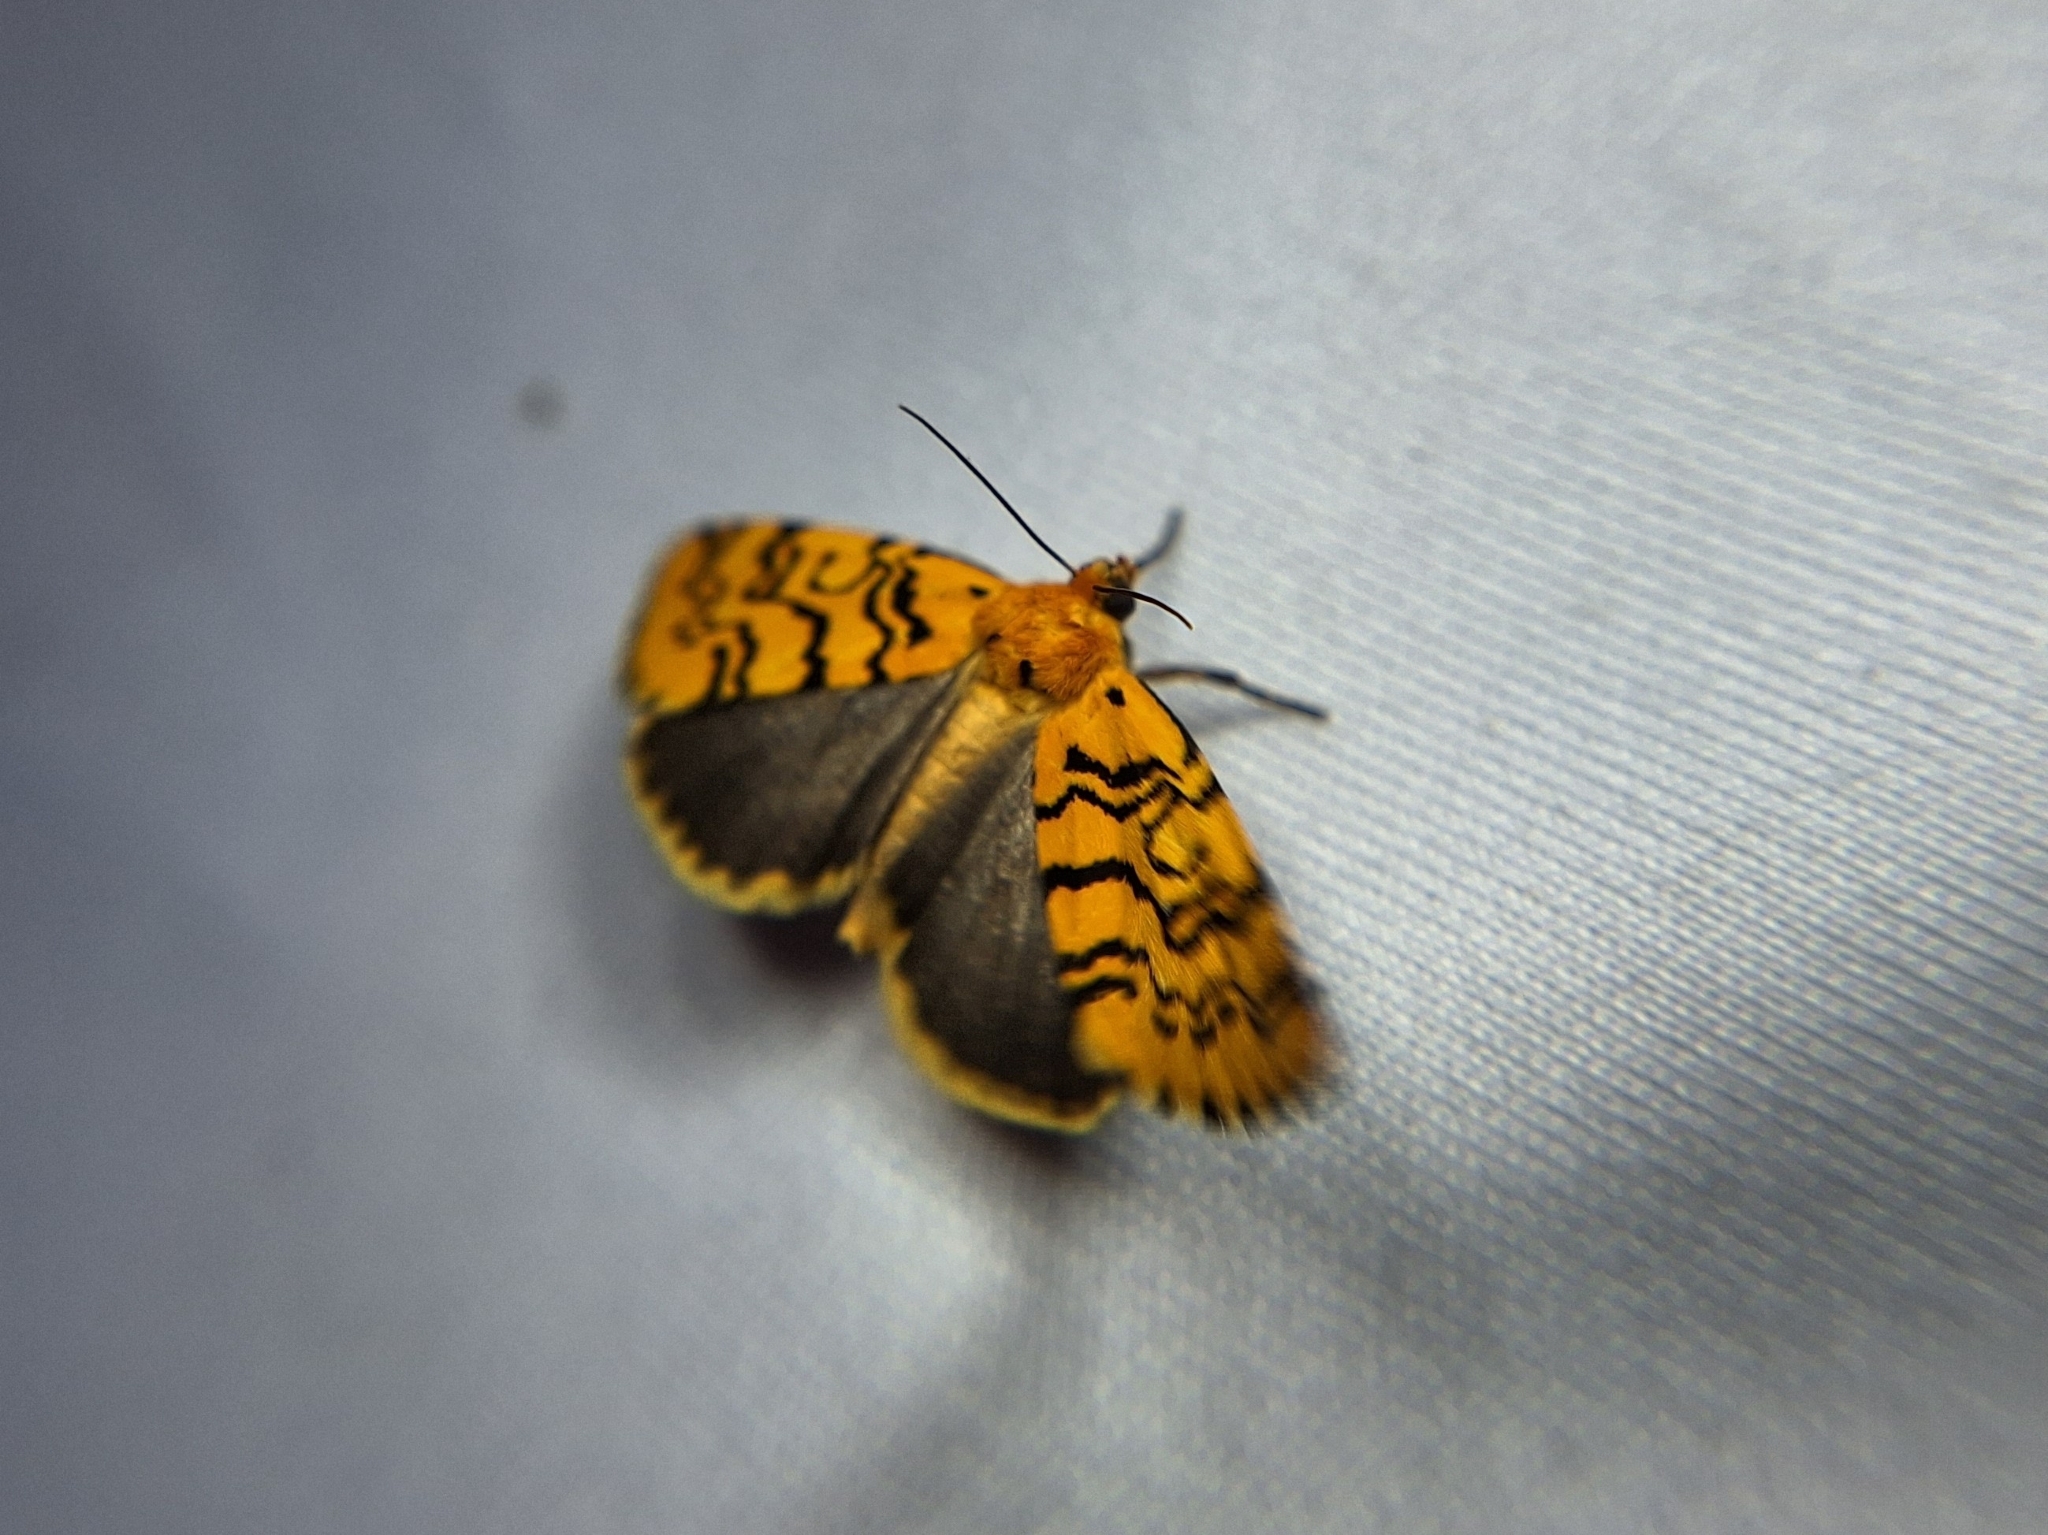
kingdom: Animalia
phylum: Arthropoda
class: Insecta
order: Lepidoptera
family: Noctuidae
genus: Chrysoecia
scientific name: Chrysoecia atrolinea
